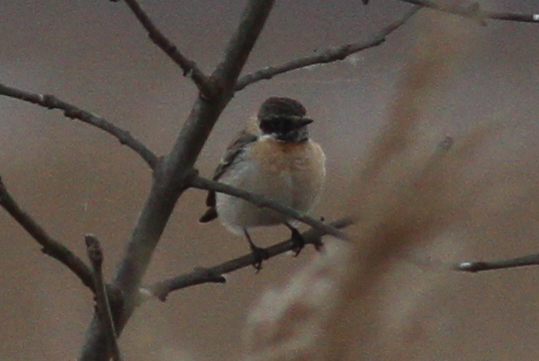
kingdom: Animalia
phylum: Chordata
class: Aves
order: Passeriformes
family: Muscicapidae
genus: Saxicola
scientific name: Saxicola maurus
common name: Siberian stonechat
